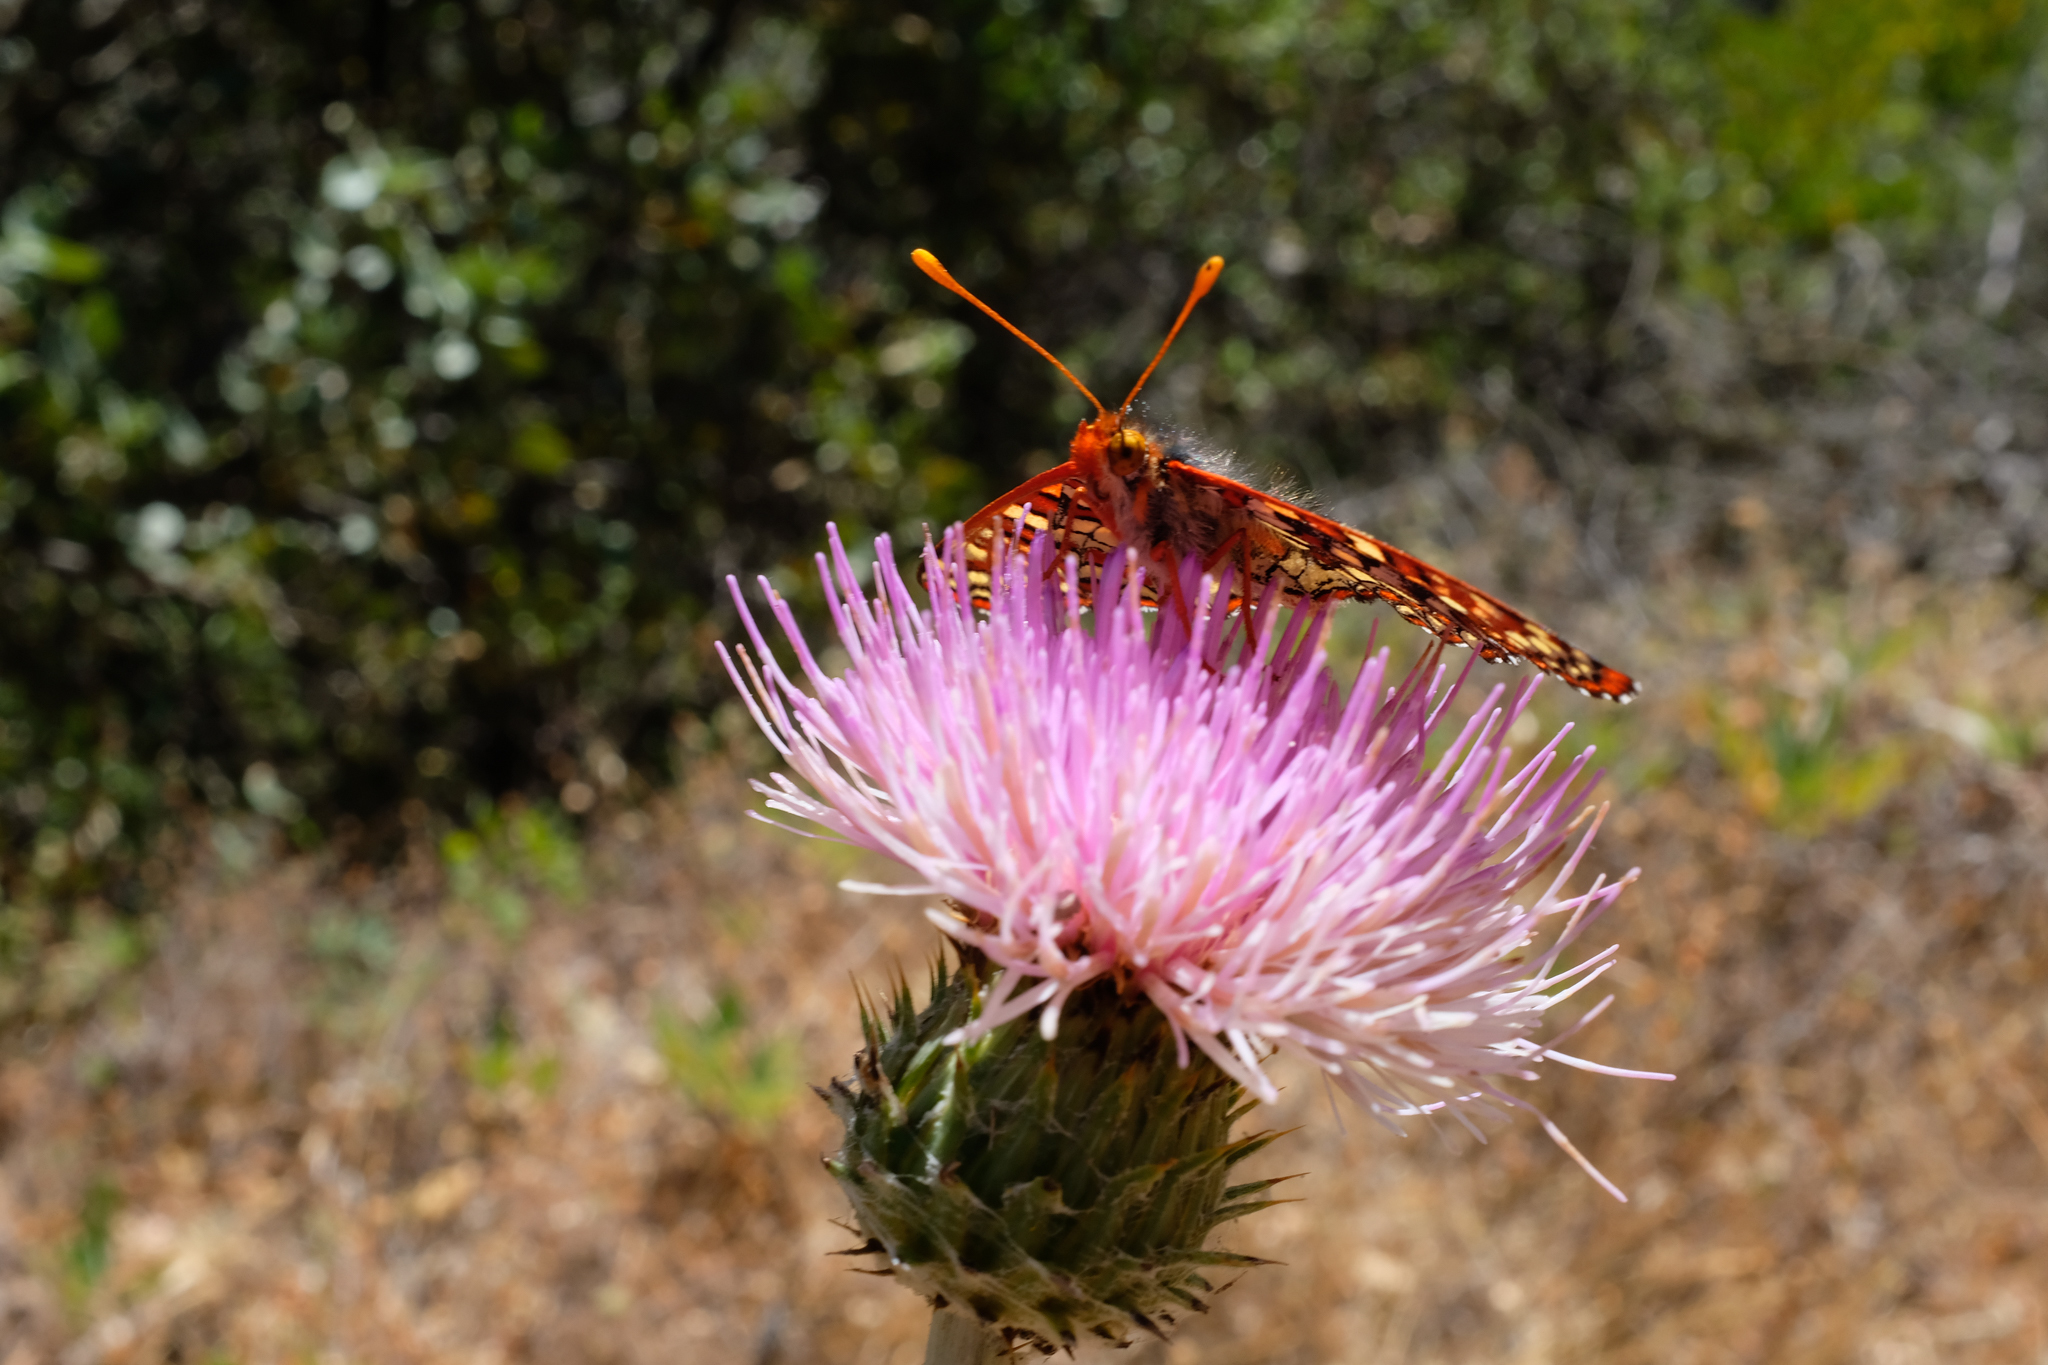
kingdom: Animalia
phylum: Arthropoda
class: Insecta
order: Lepidoptera
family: Nymphalidae
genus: Occidryas
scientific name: Occidryas chalcedona
